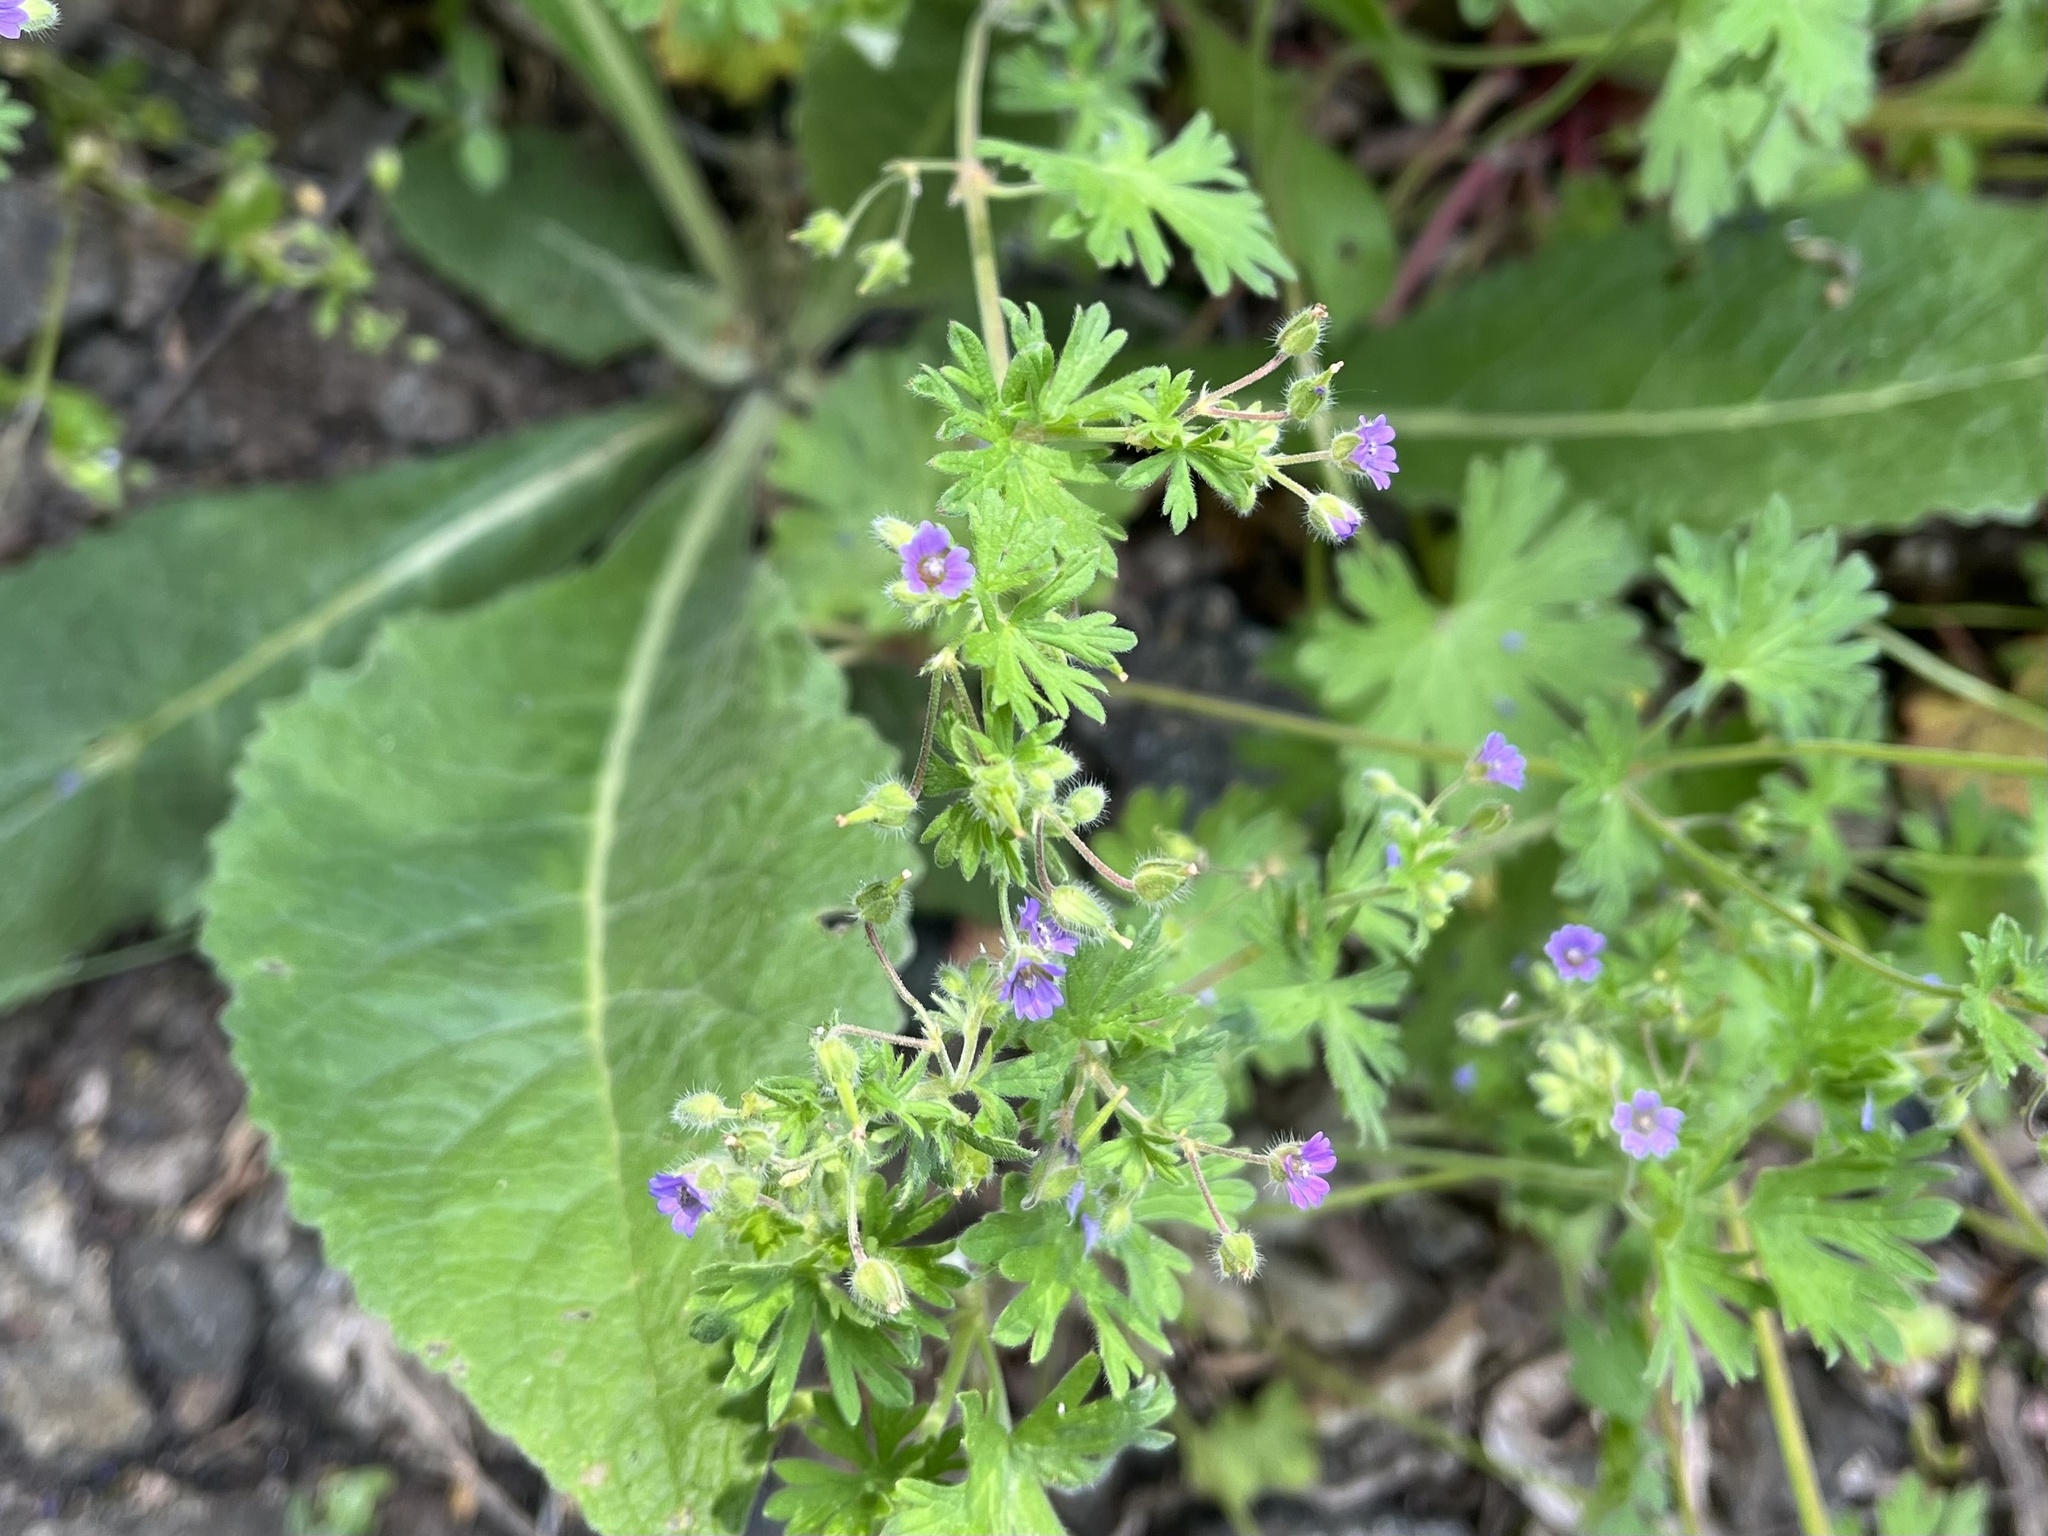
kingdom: Plantae
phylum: Tracheophyta
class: Magnoliopsida
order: Geraniales
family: Geraniaceae
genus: Geranium
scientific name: Geranium pusillum
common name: Small geranium
